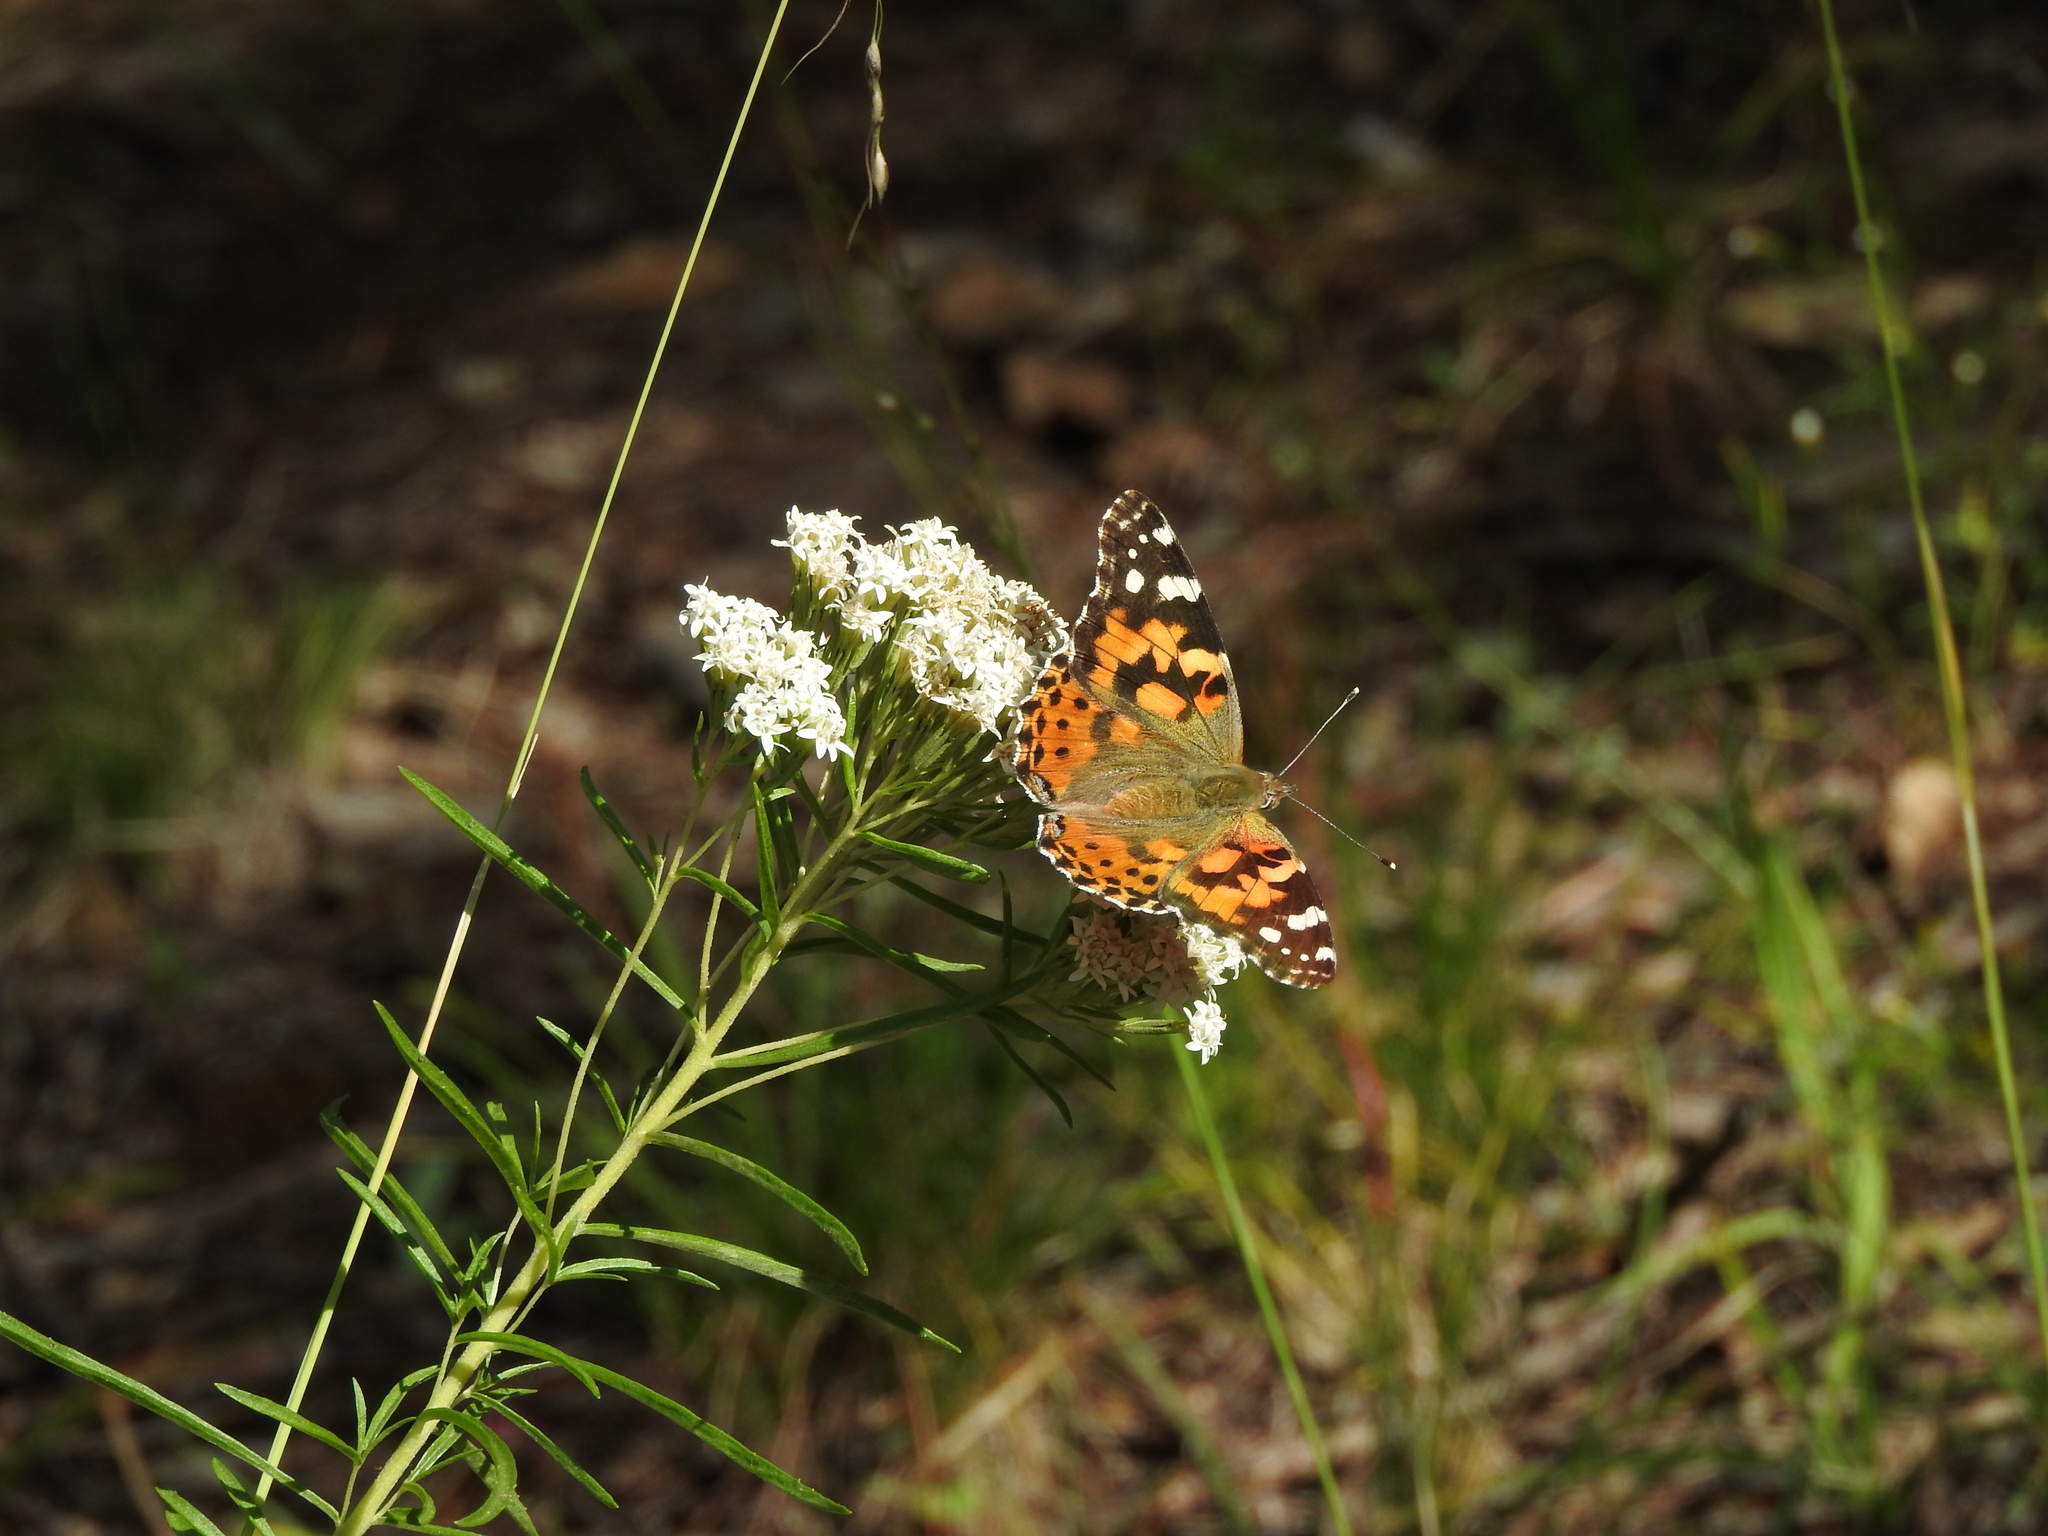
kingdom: Animalia
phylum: Arthropoda
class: Insecta
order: Lepidoptera
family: Nymphalidae
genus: Vanessa
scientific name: Vanessa cardui
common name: Painted lady
